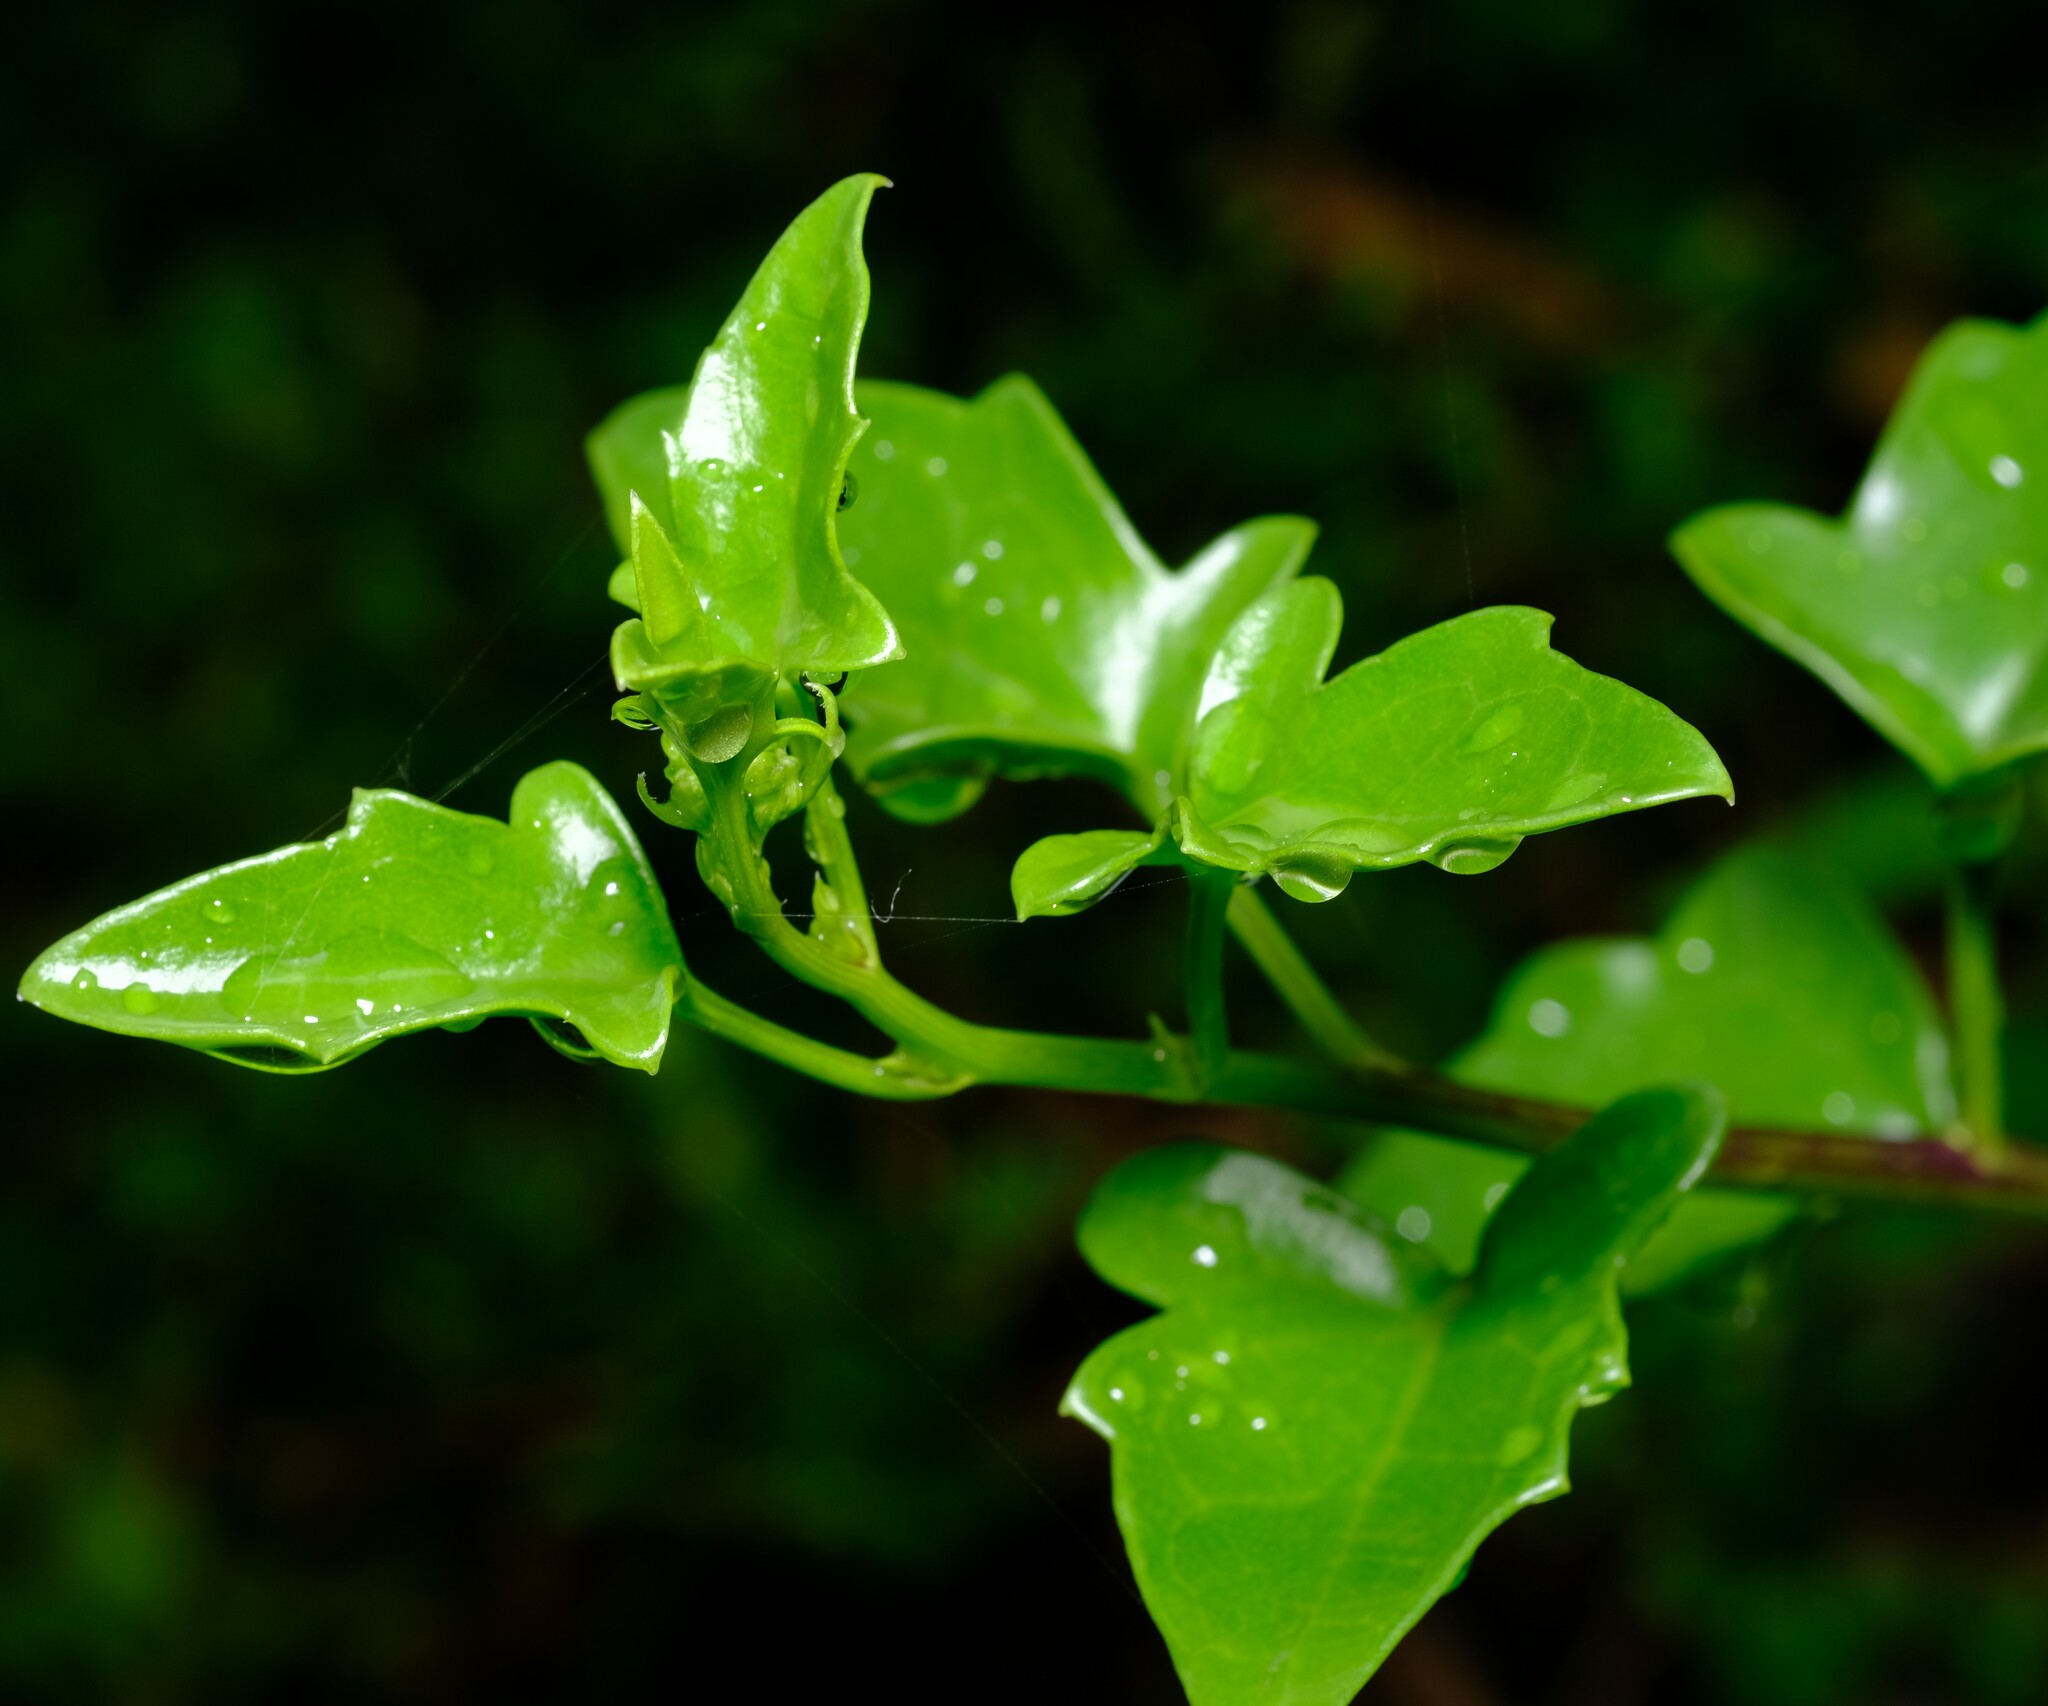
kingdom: Plantae
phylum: Tracheophyta
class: Magnoliopsida
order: Asterales
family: Asteraceae
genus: Senecio
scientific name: Senecio angulatus
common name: Climbing groundsel
